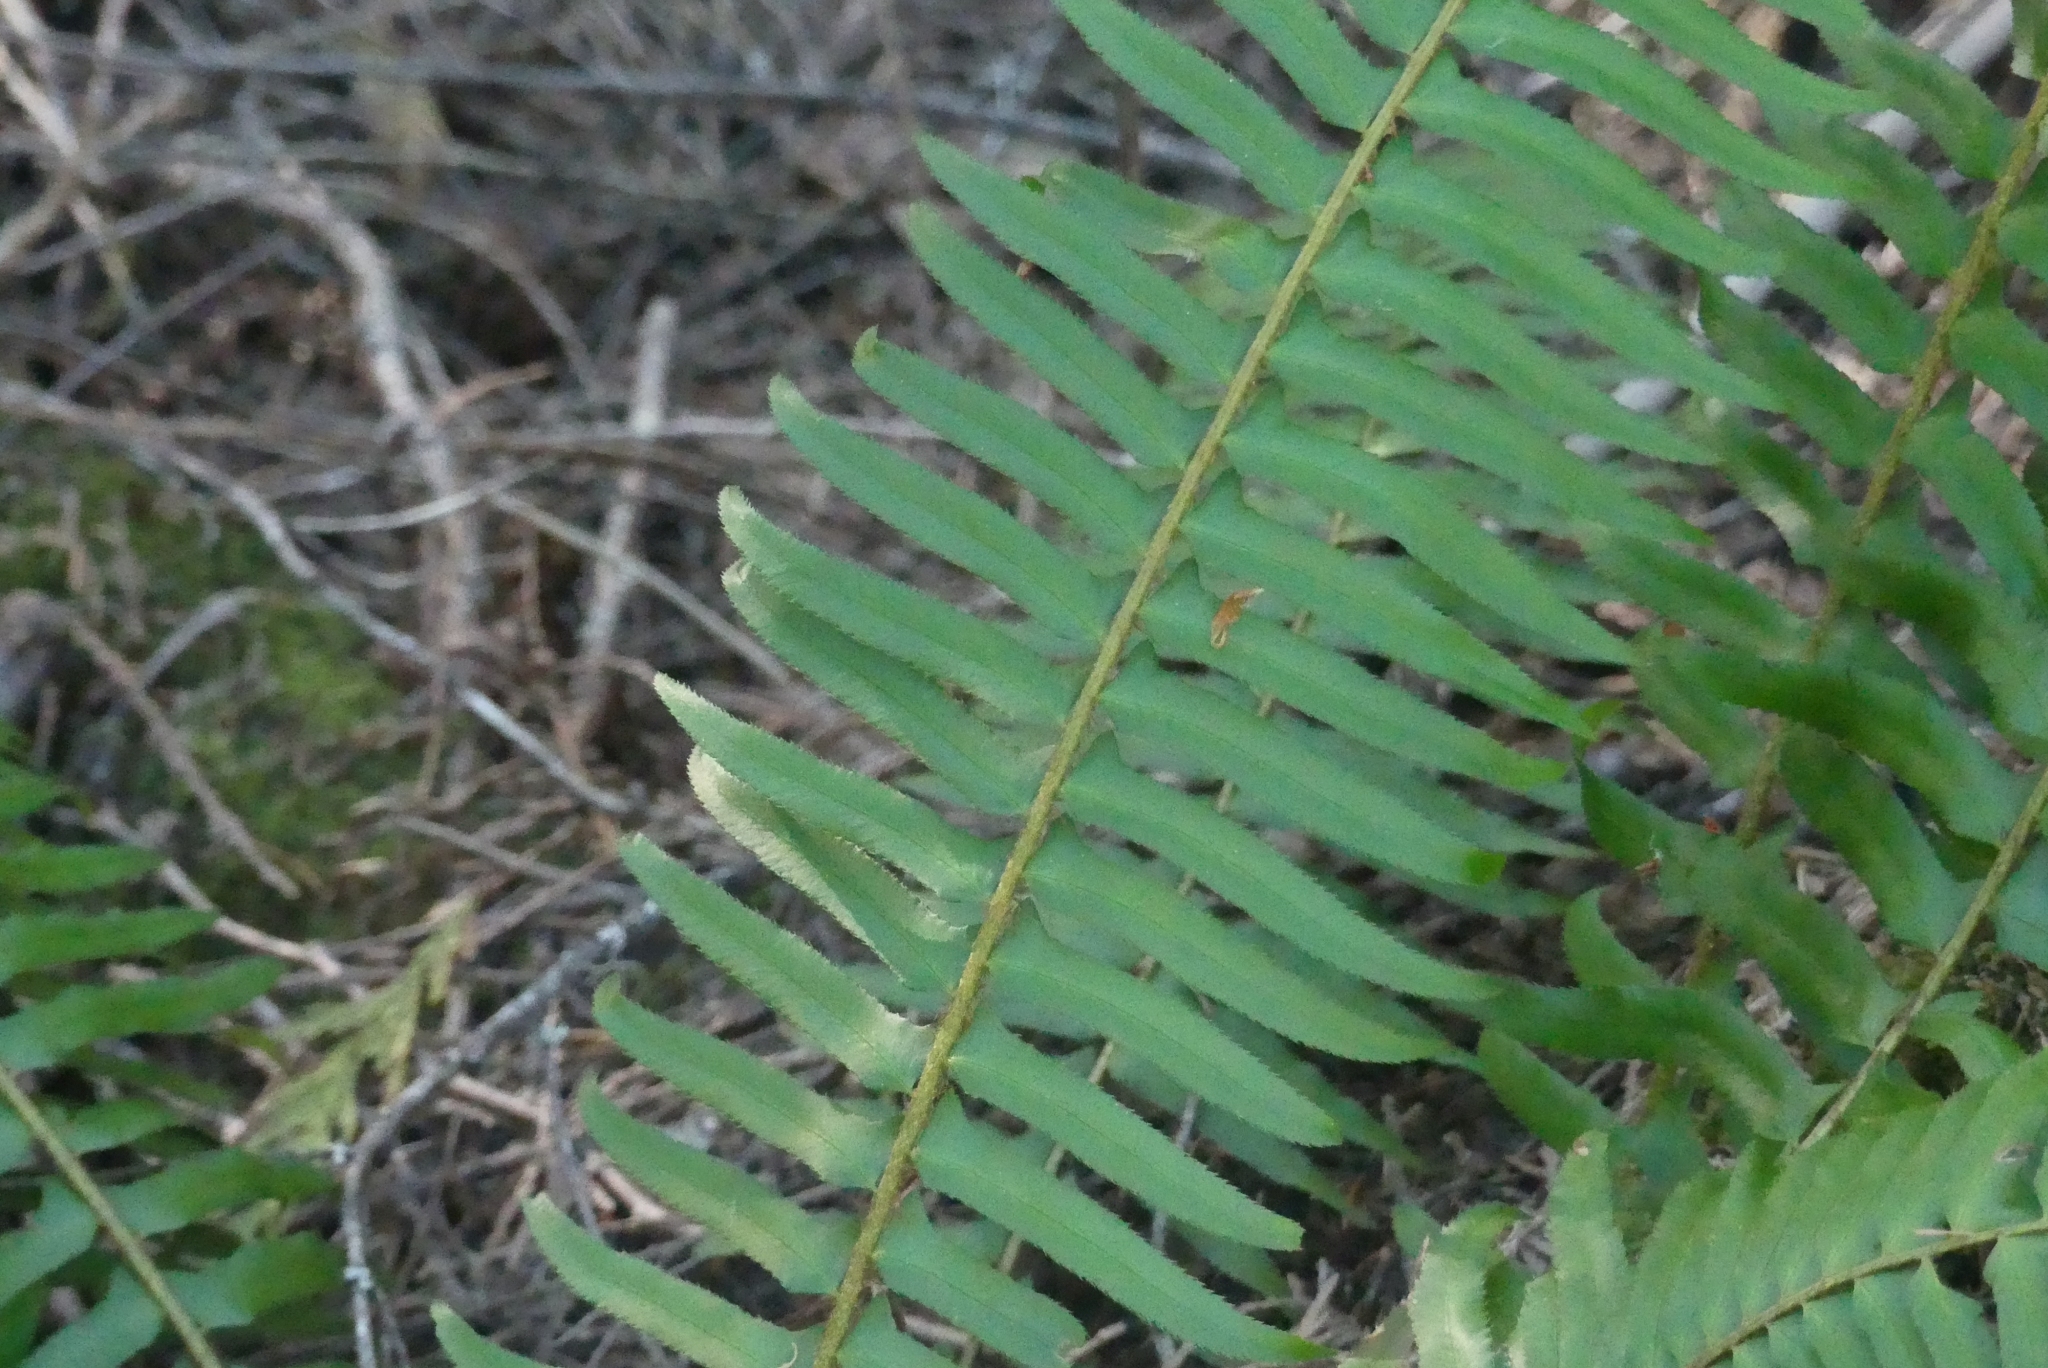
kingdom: Plantae
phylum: Tracheophyta
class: Polypodiopsida
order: Polypodiales
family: Dryopteridaceae
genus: Polystichum
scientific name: Polystichum munitum
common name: Western sword-fern
